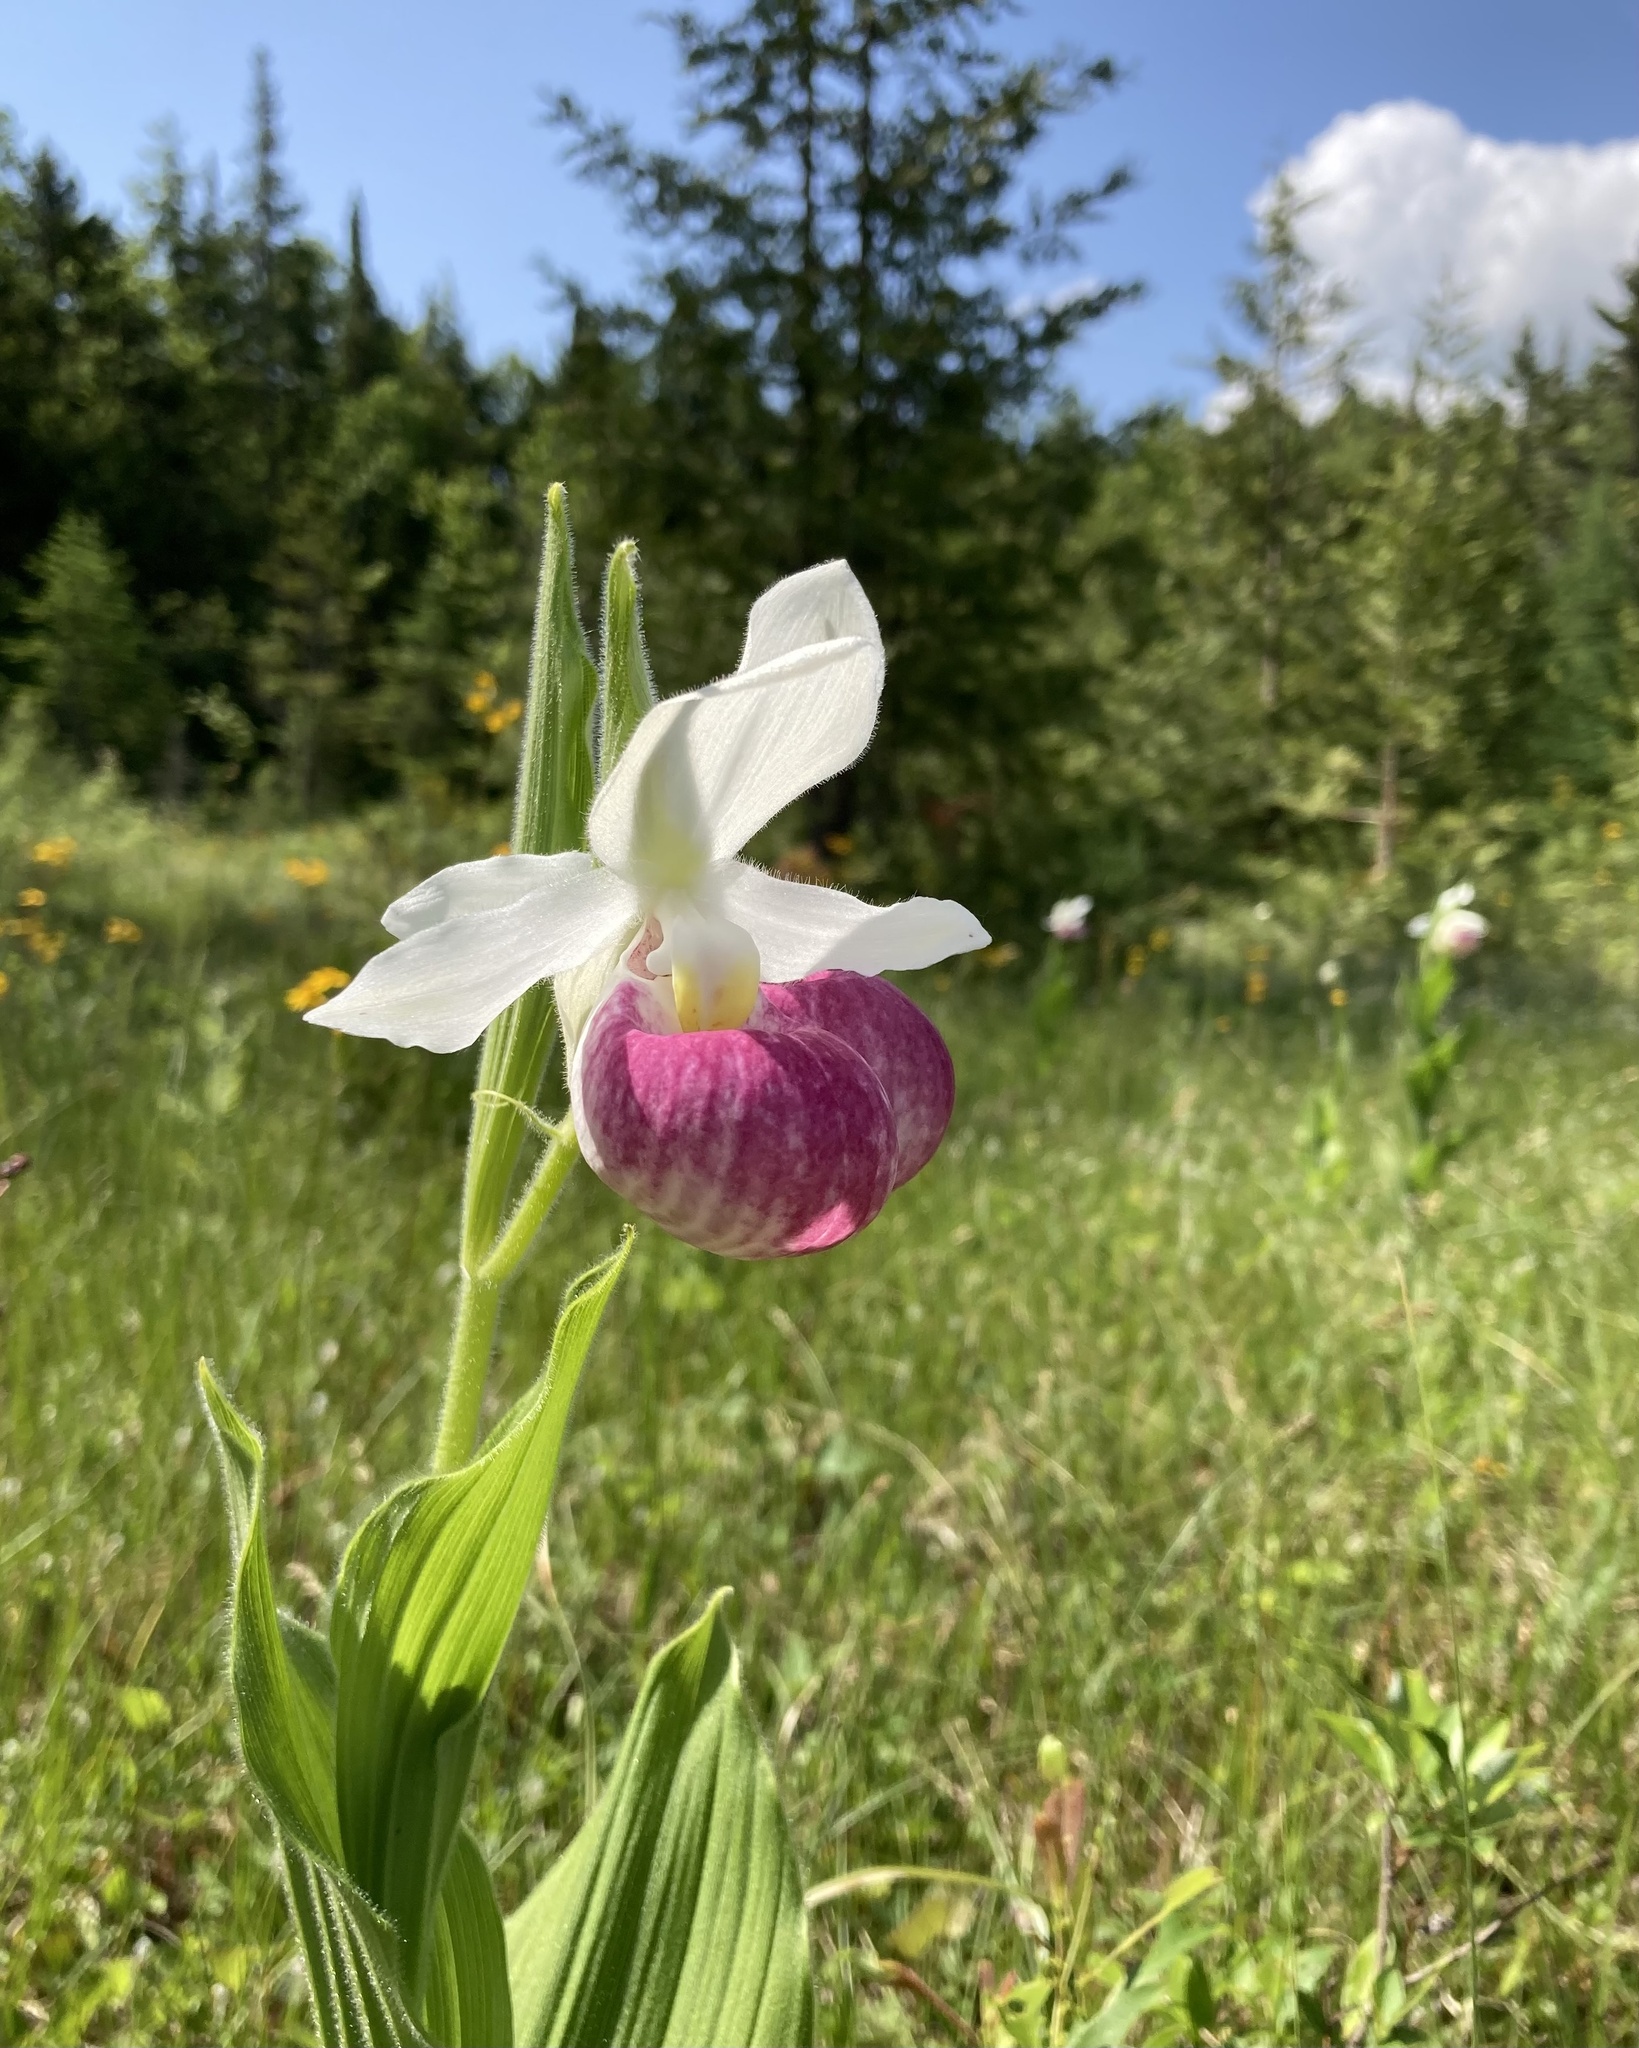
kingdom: Plantae
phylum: Tracheophyta
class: Liliopsida
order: Asparagales
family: Orchidaceae
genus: Cypripedium
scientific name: Cypripedium reginae
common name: Queen lady's-slipper
